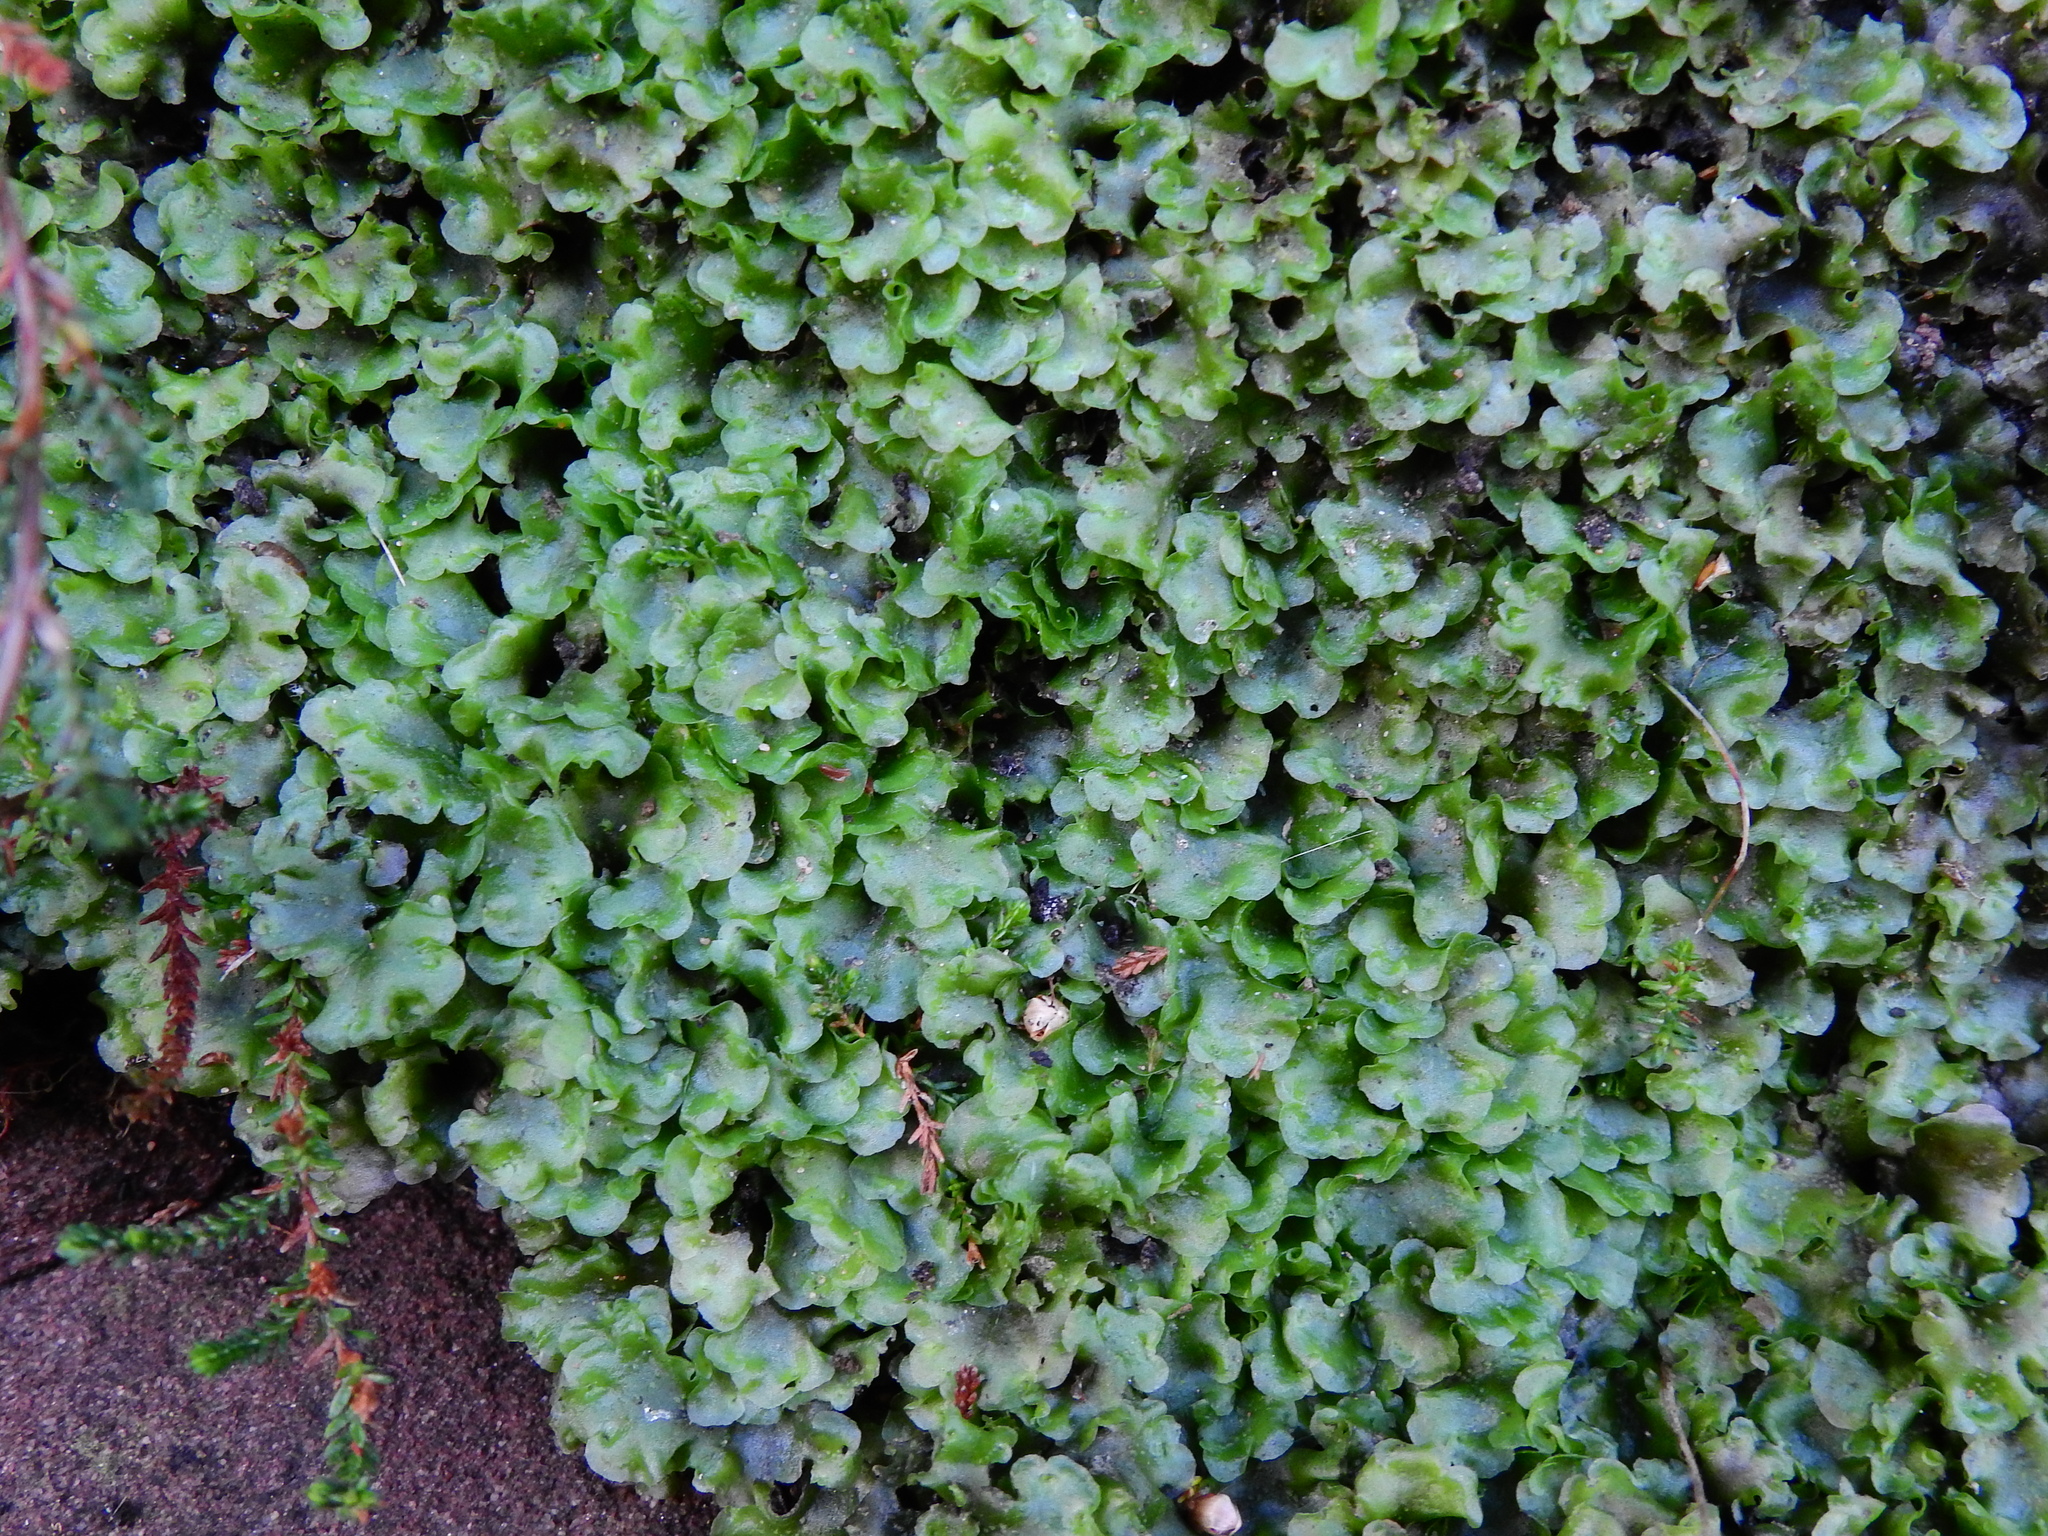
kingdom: Plantae
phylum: Marchantiophyta
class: Jungermanniopsida
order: Pelliales
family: Pelliaceae
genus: Pellia
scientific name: Pellia neesiana
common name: Nees  pellia
